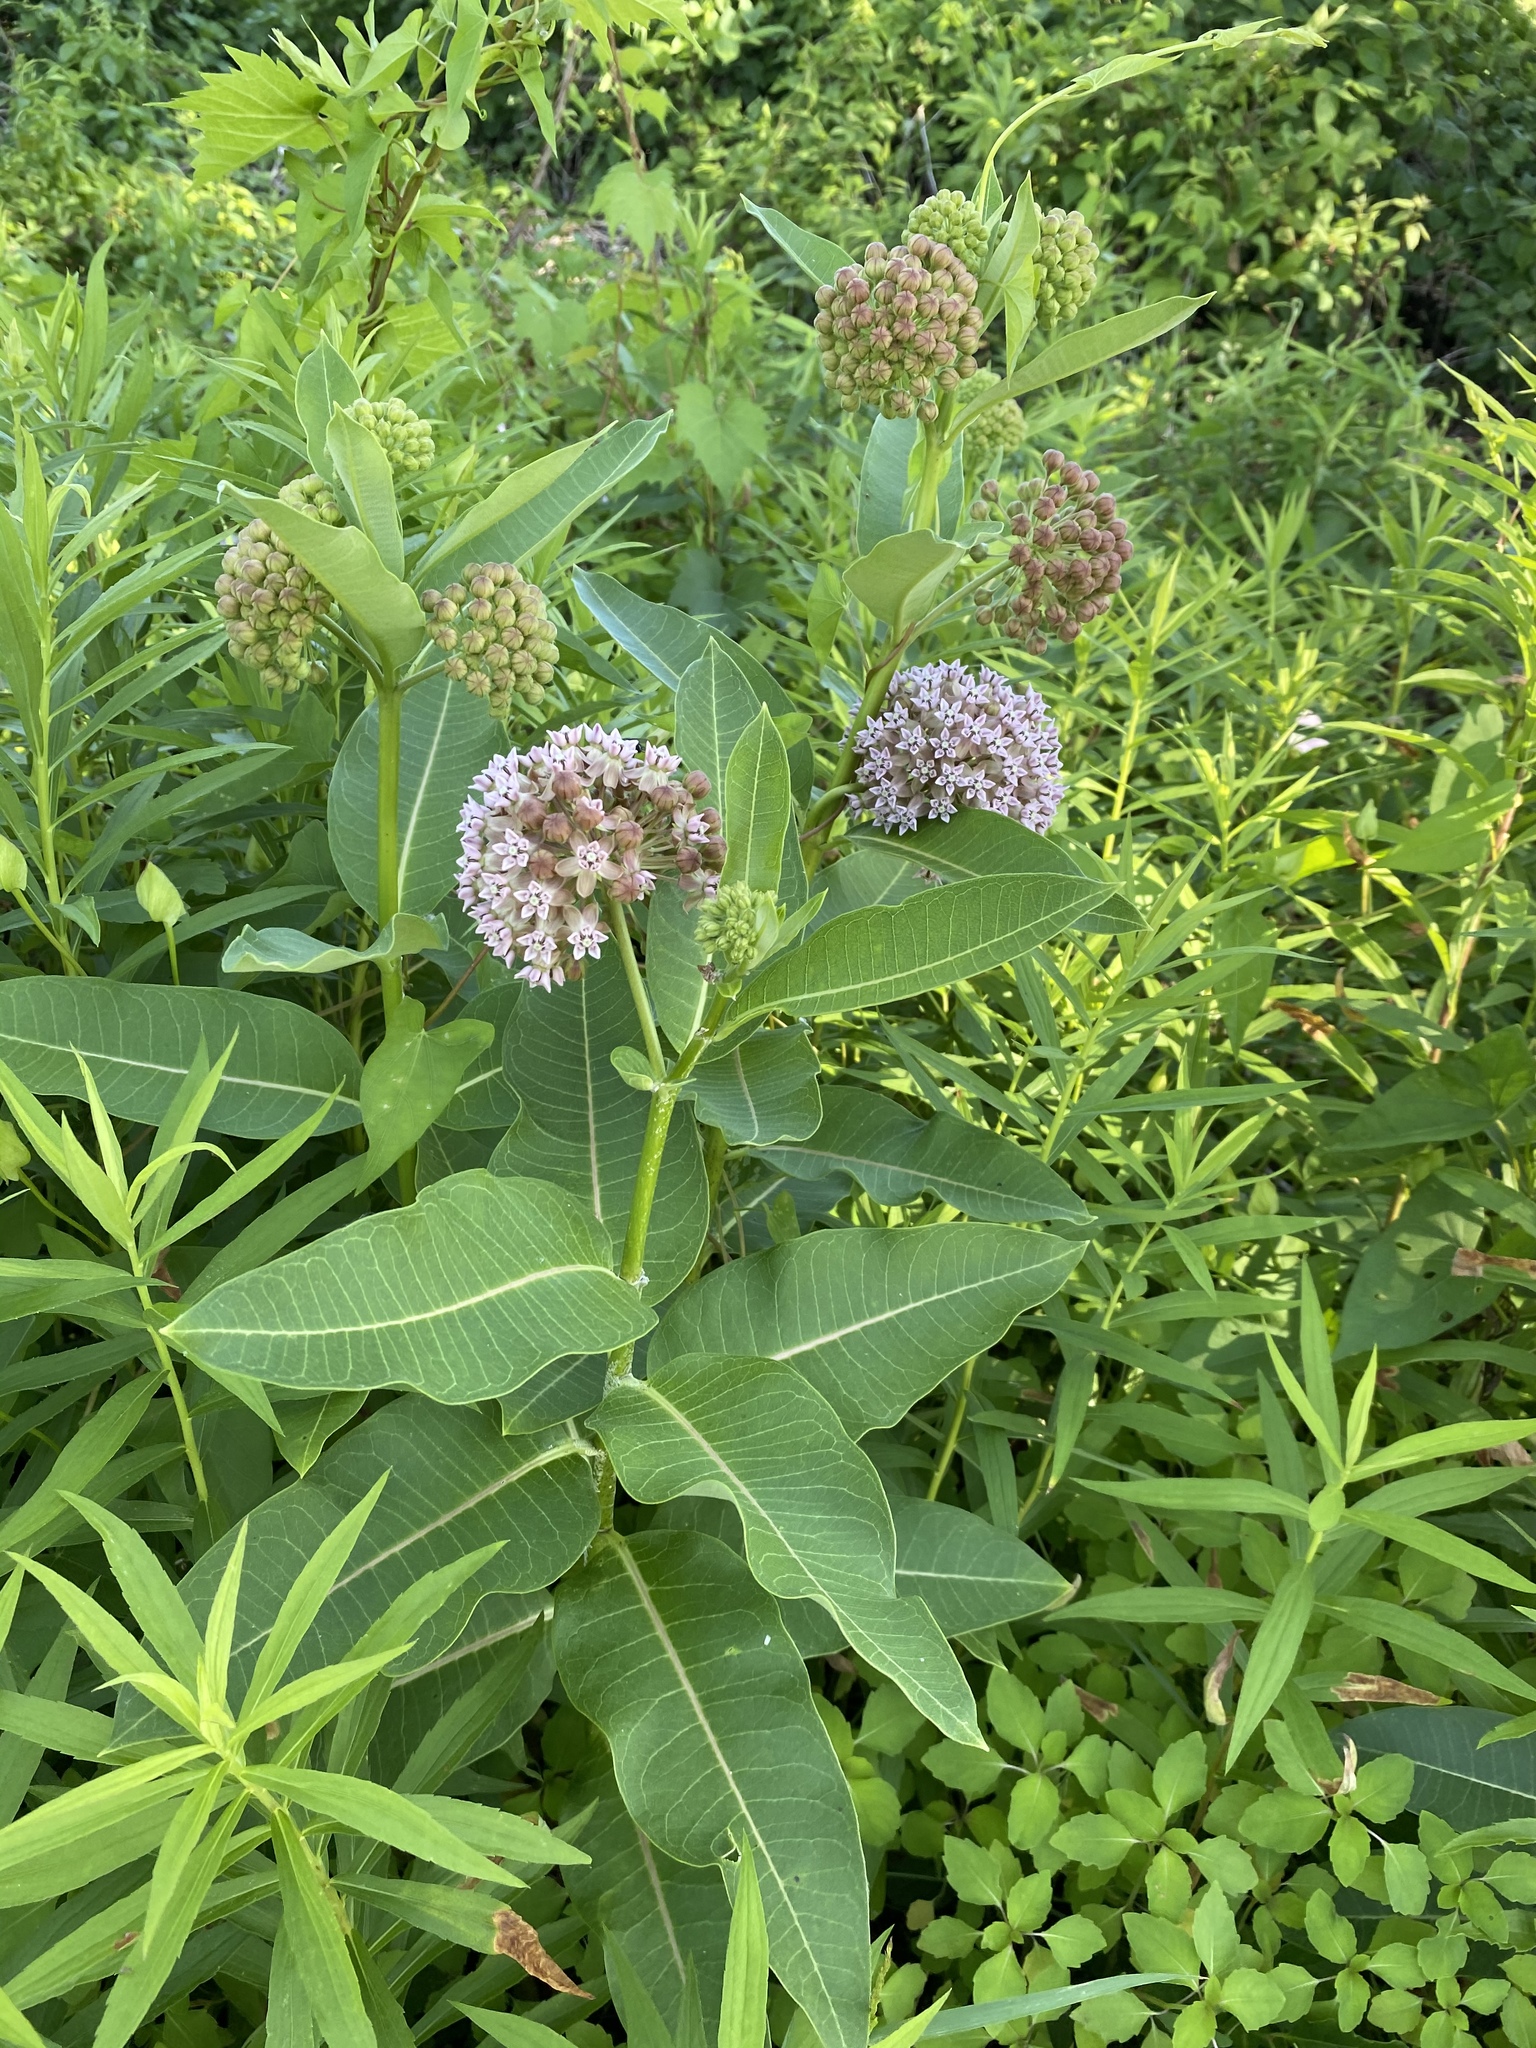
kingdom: Plantae
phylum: Tracheophyta
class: Magnoliopsida
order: Gentianales
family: Apocynaceae
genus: Asclepias
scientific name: Asclepias syriaca
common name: Common milkweed
